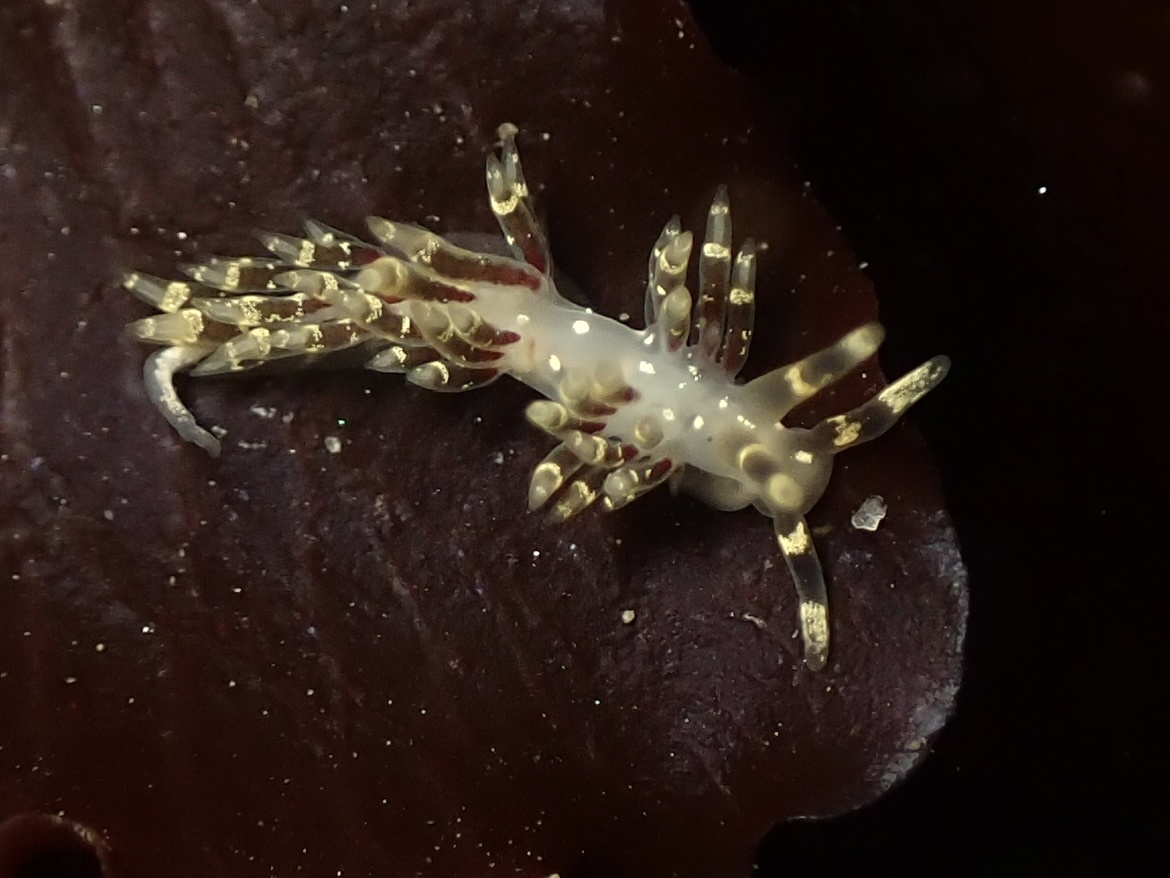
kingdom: Animalia
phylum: Mollusca
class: Gastropoda
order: Nudibranchia
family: Abronicidae
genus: Abronica
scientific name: Abronica abronia
